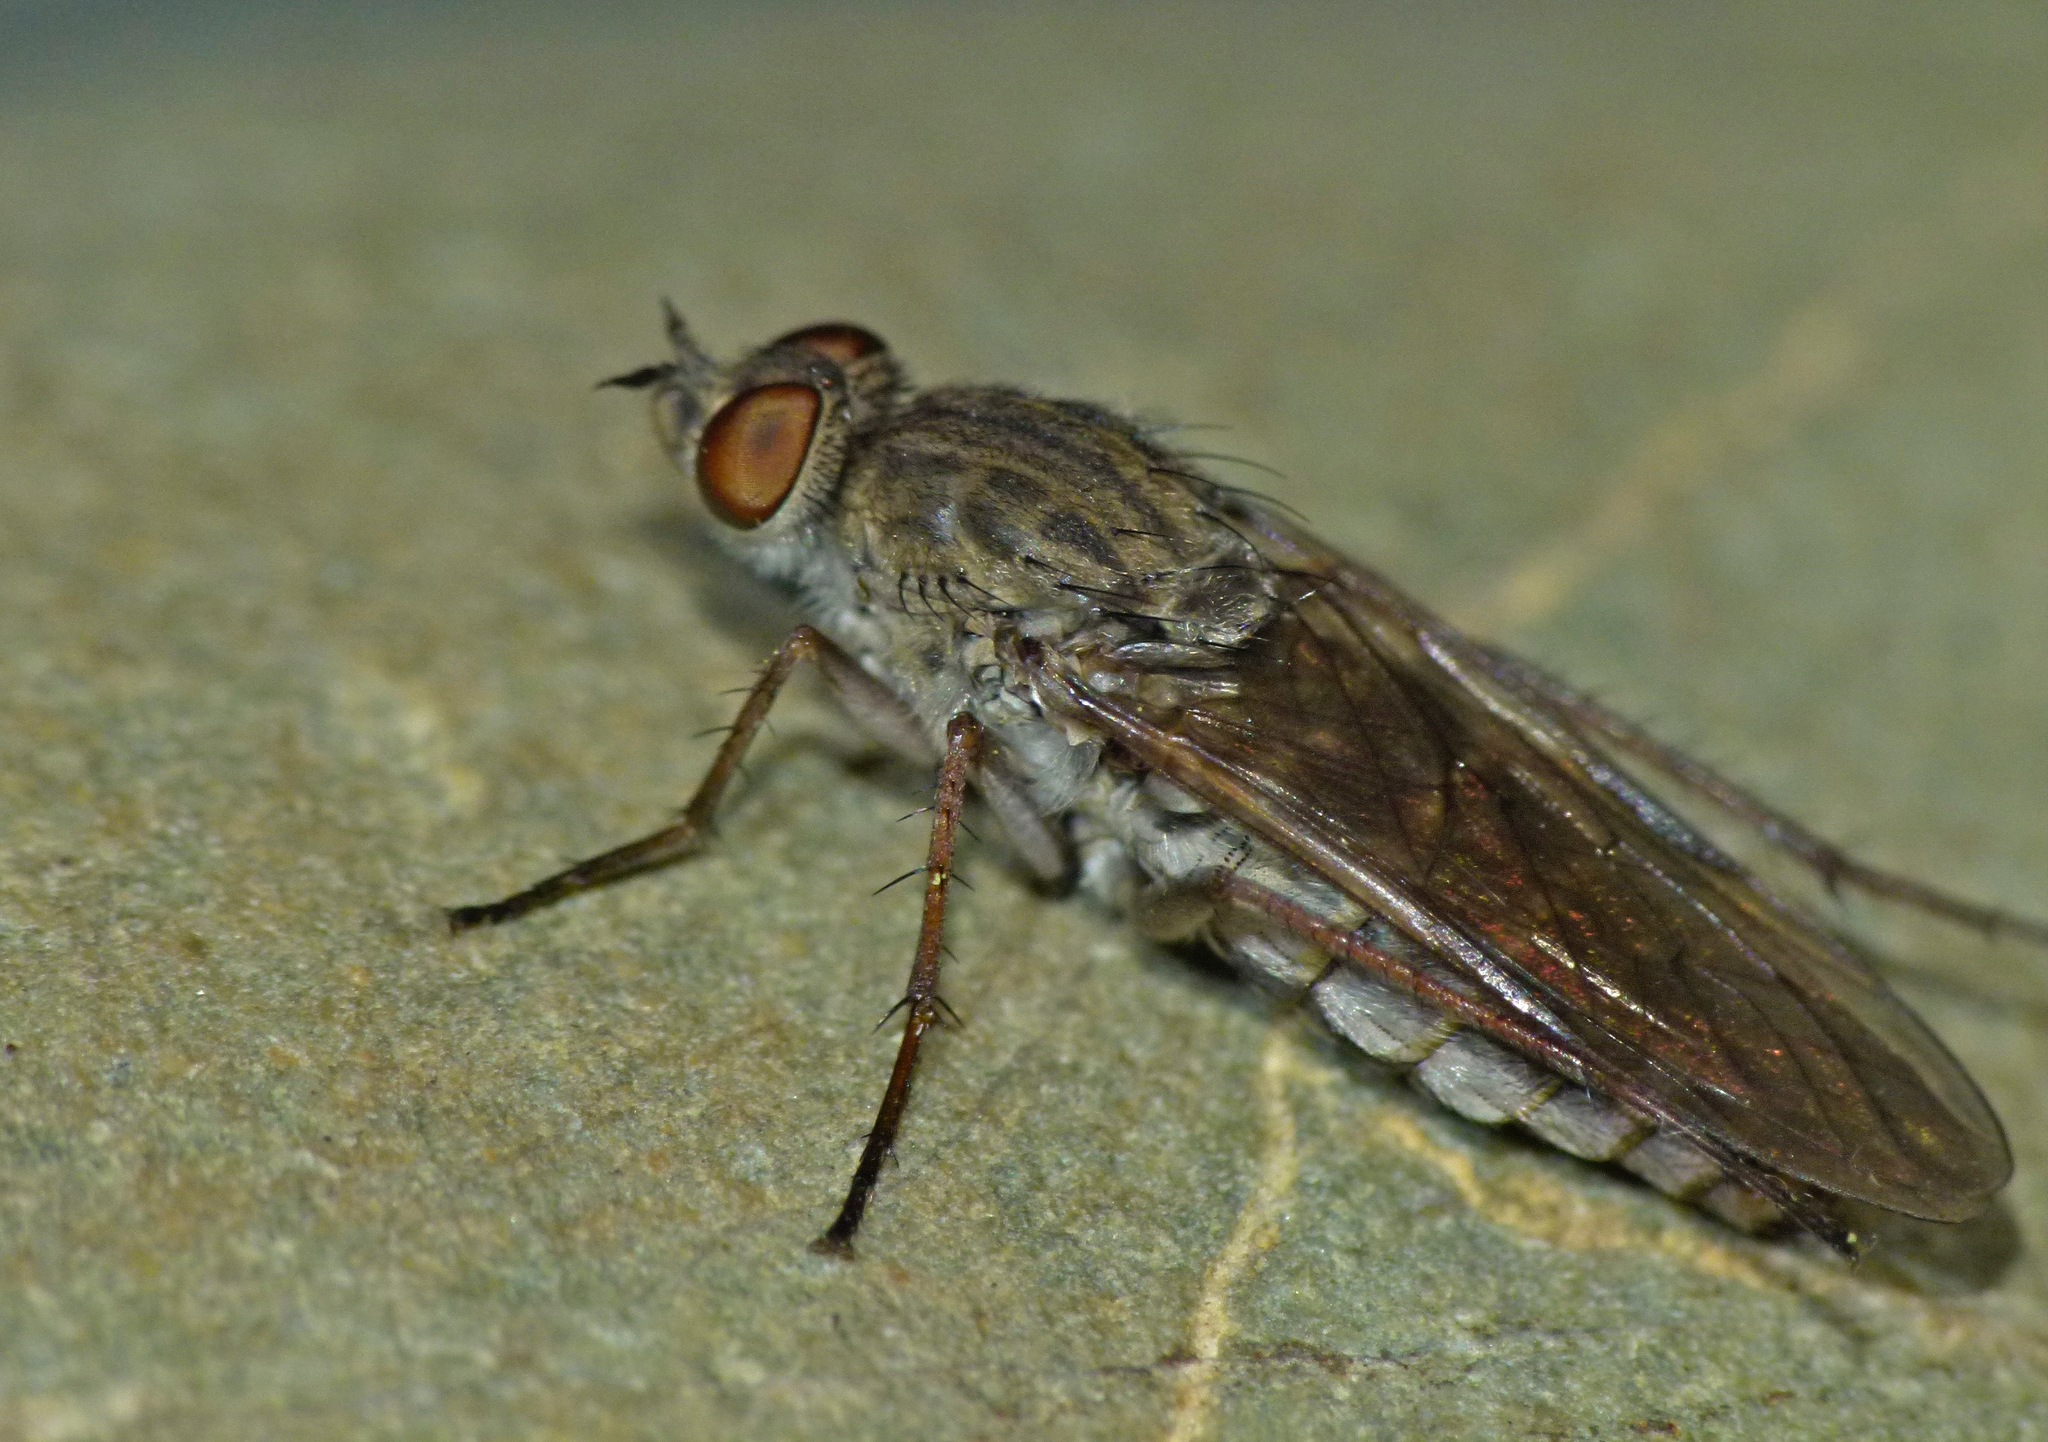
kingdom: Animalia
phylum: Arthropoda
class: Insecta
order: Diptera
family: Therevidae
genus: Anabarhynchus
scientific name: Anabarhynchus triangularis
